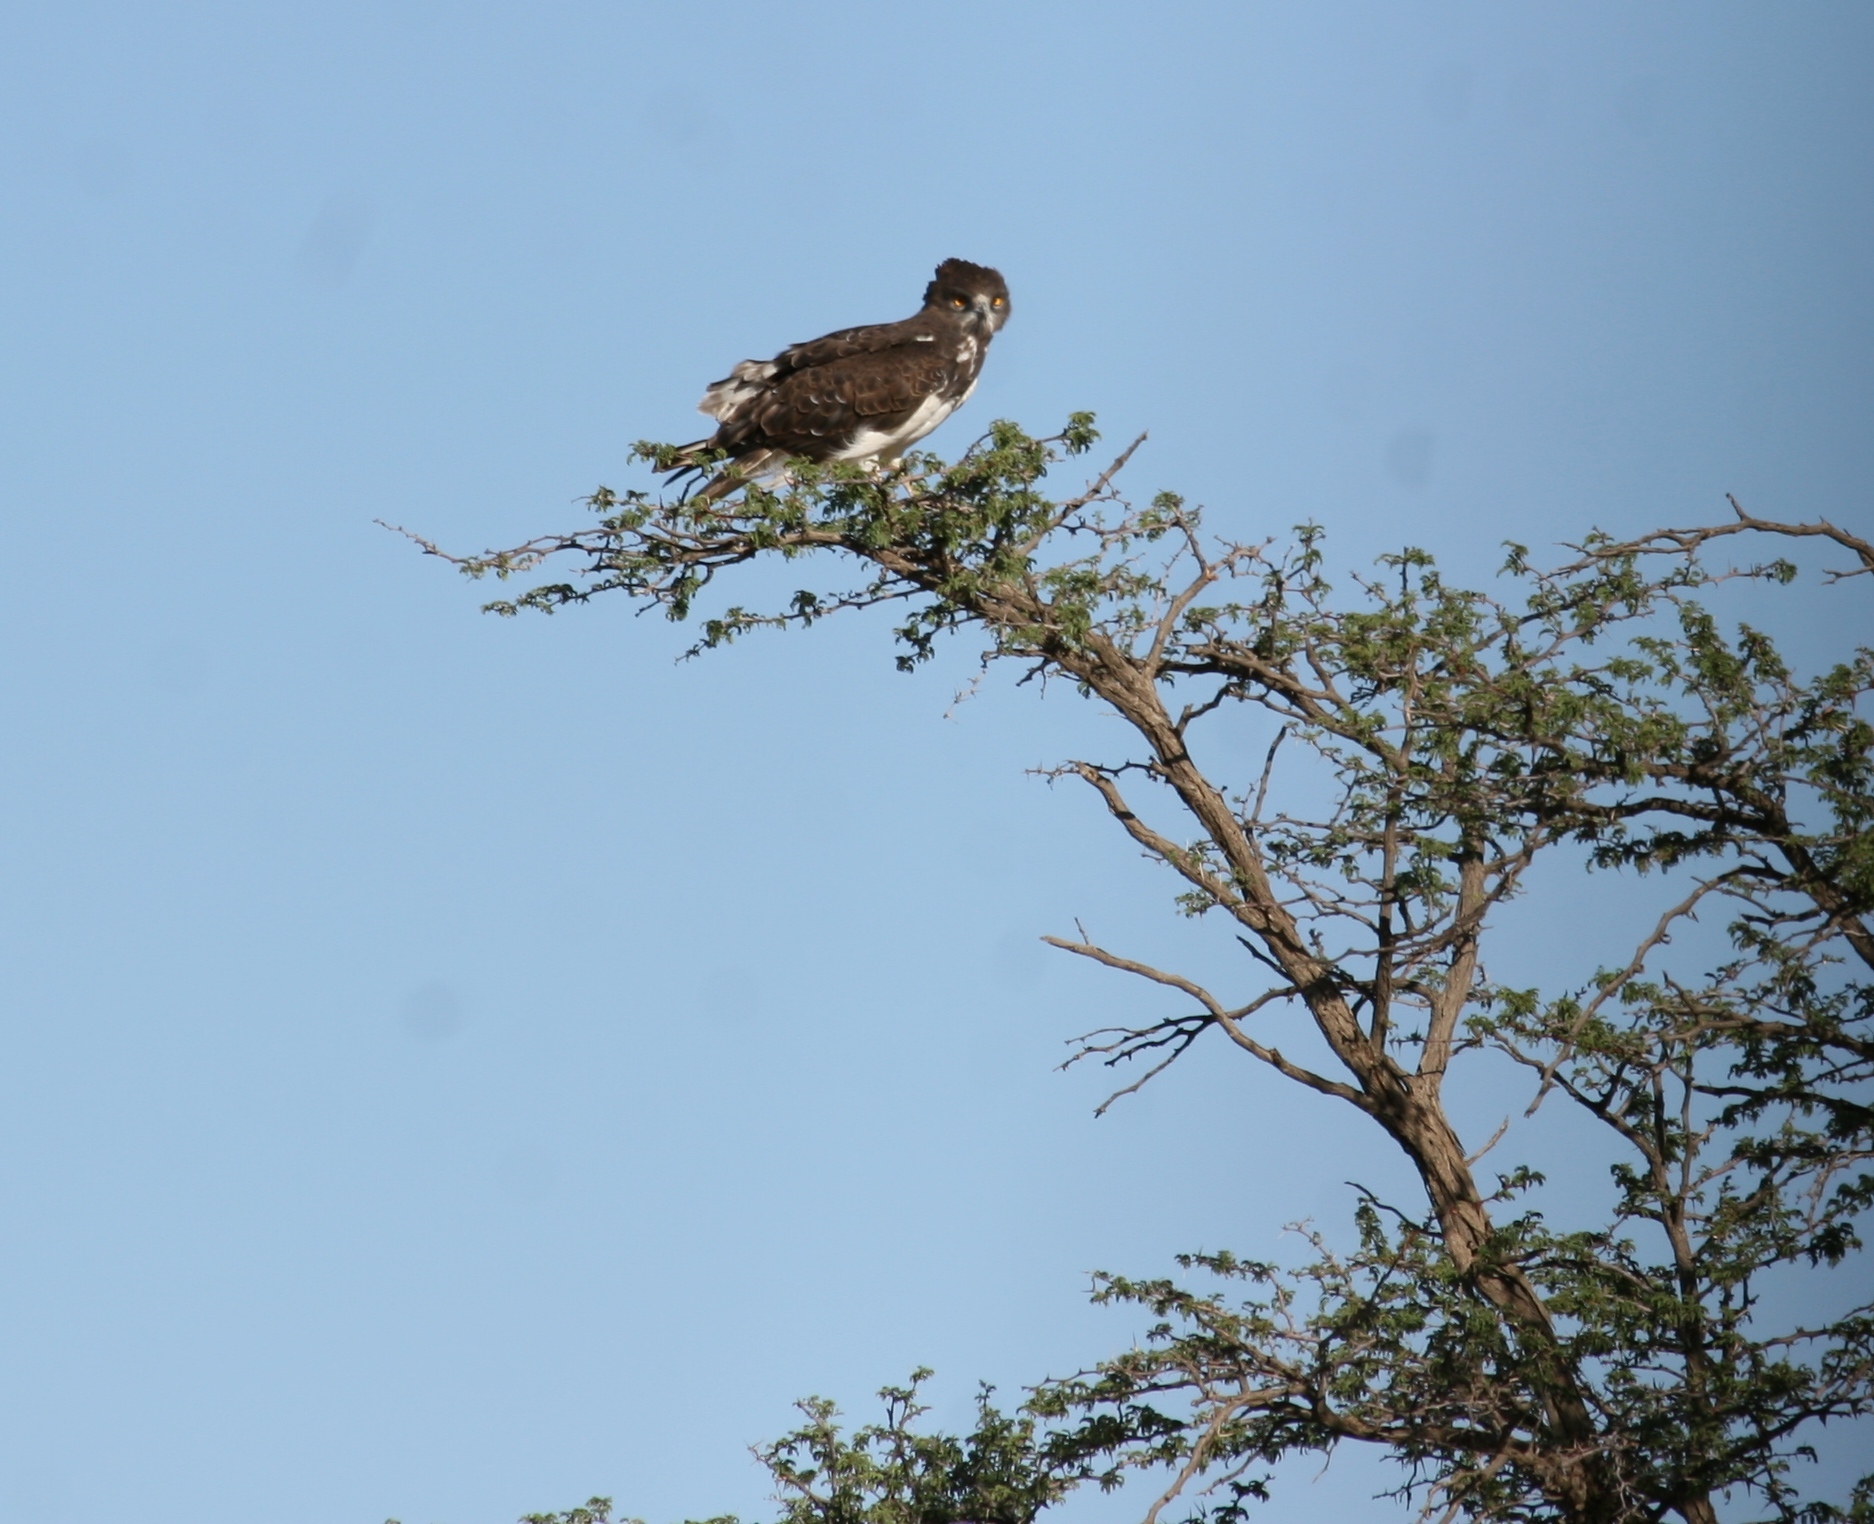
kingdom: Animalia
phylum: Chordata
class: Aves
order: Accipitriformes
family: Accipitridae
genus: Circaetus
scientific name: Circaetus pectoralis
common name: Black-chested snake eagle
